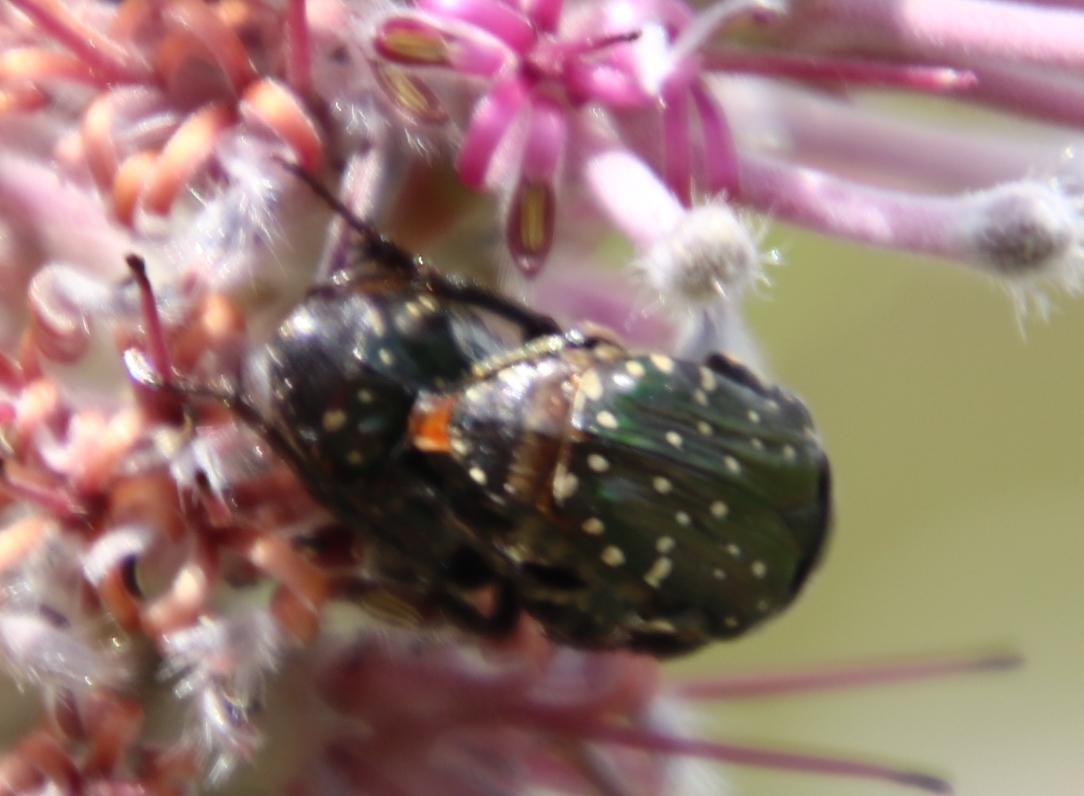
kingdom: Animalia
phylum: Arthropoda
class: Insecta
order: Coleoptera
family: Scarabaeidae
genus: Leucocelis
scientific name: Leucocelis adspersa
